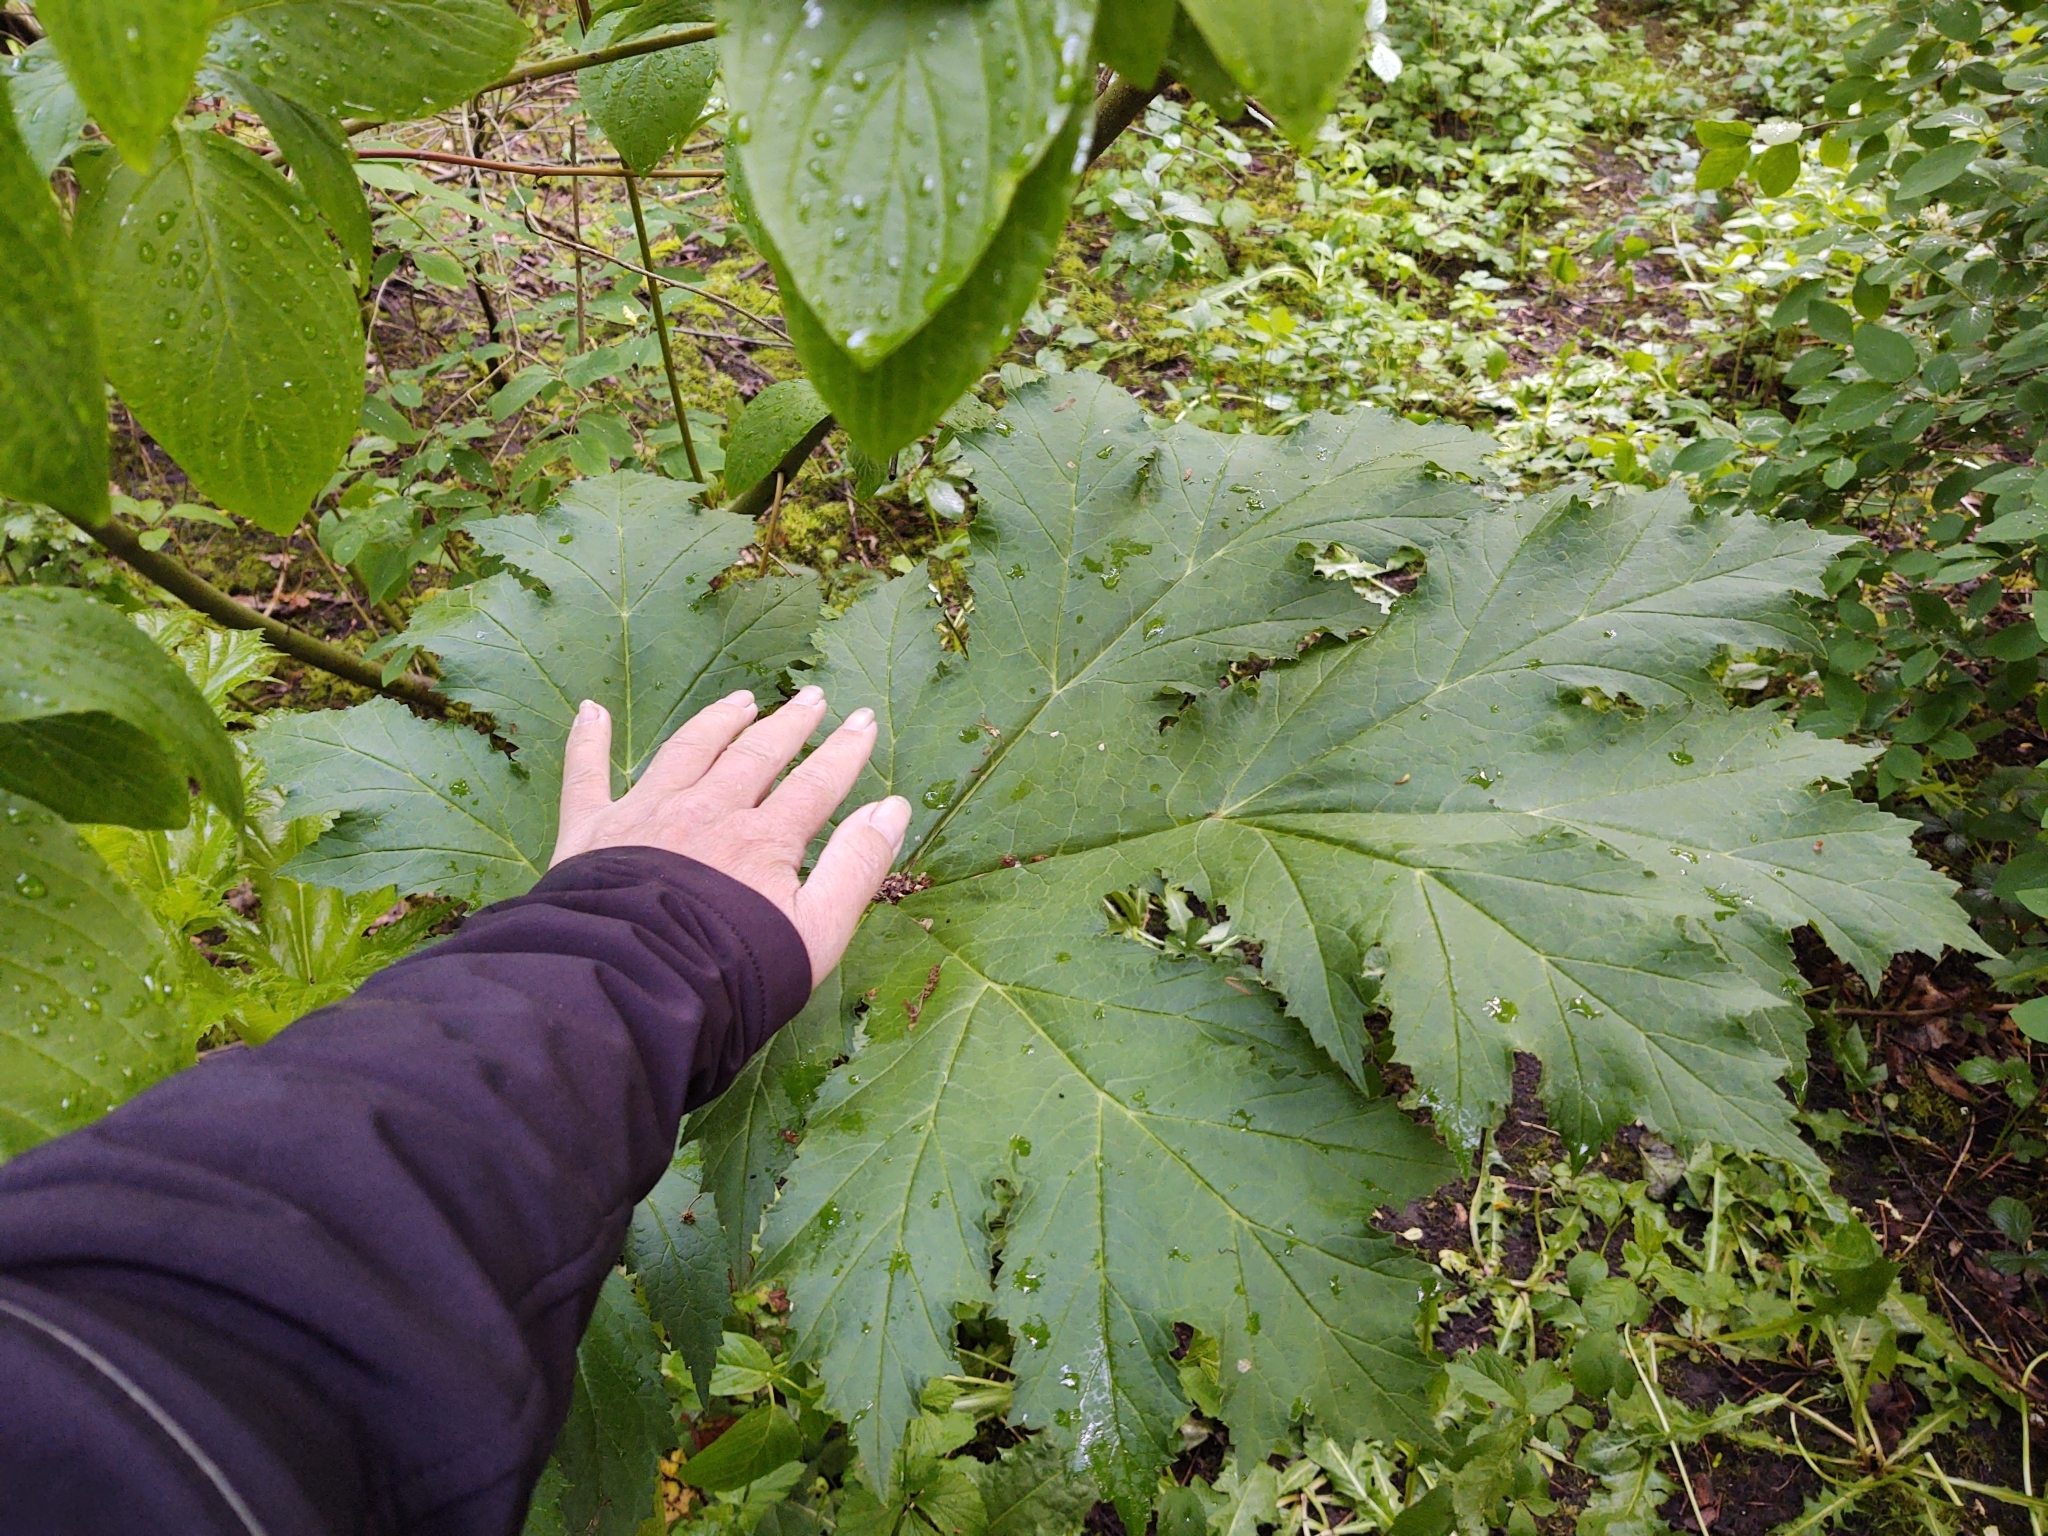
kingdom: Plantae
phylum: Tracheophyta
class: Magnoliopsida
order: Apiales
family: Apiaceae
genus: Heracleum
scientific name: Heracleum mantegazzianum
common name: Giant hogweed
